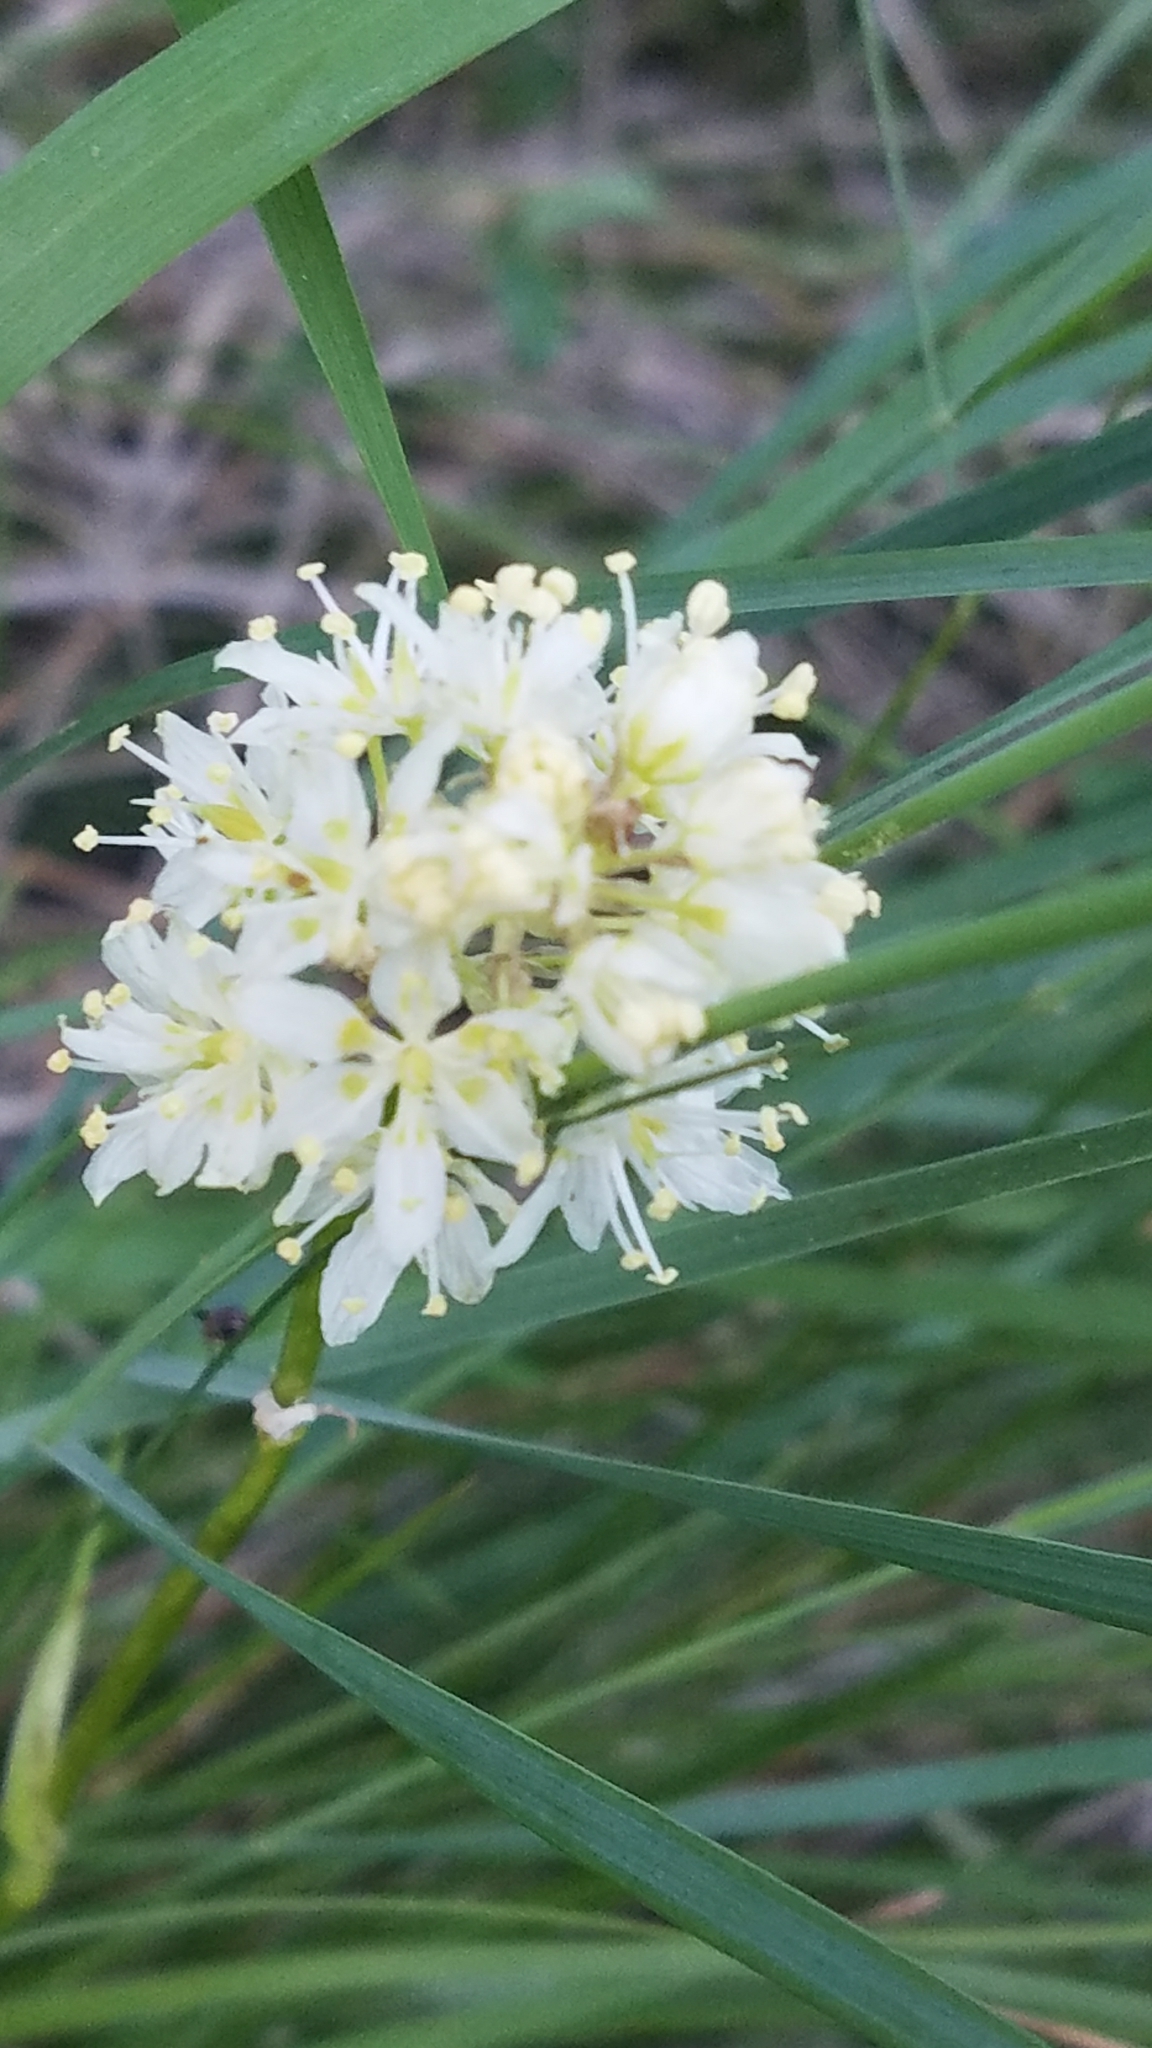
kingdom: Plantae
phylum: Tracheophyta
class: Liliopsida
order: Liliales
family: Melanthiaceae
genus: Toxicoscordion
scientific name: Toxicoscordion venenosum
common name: Meadow death camas
